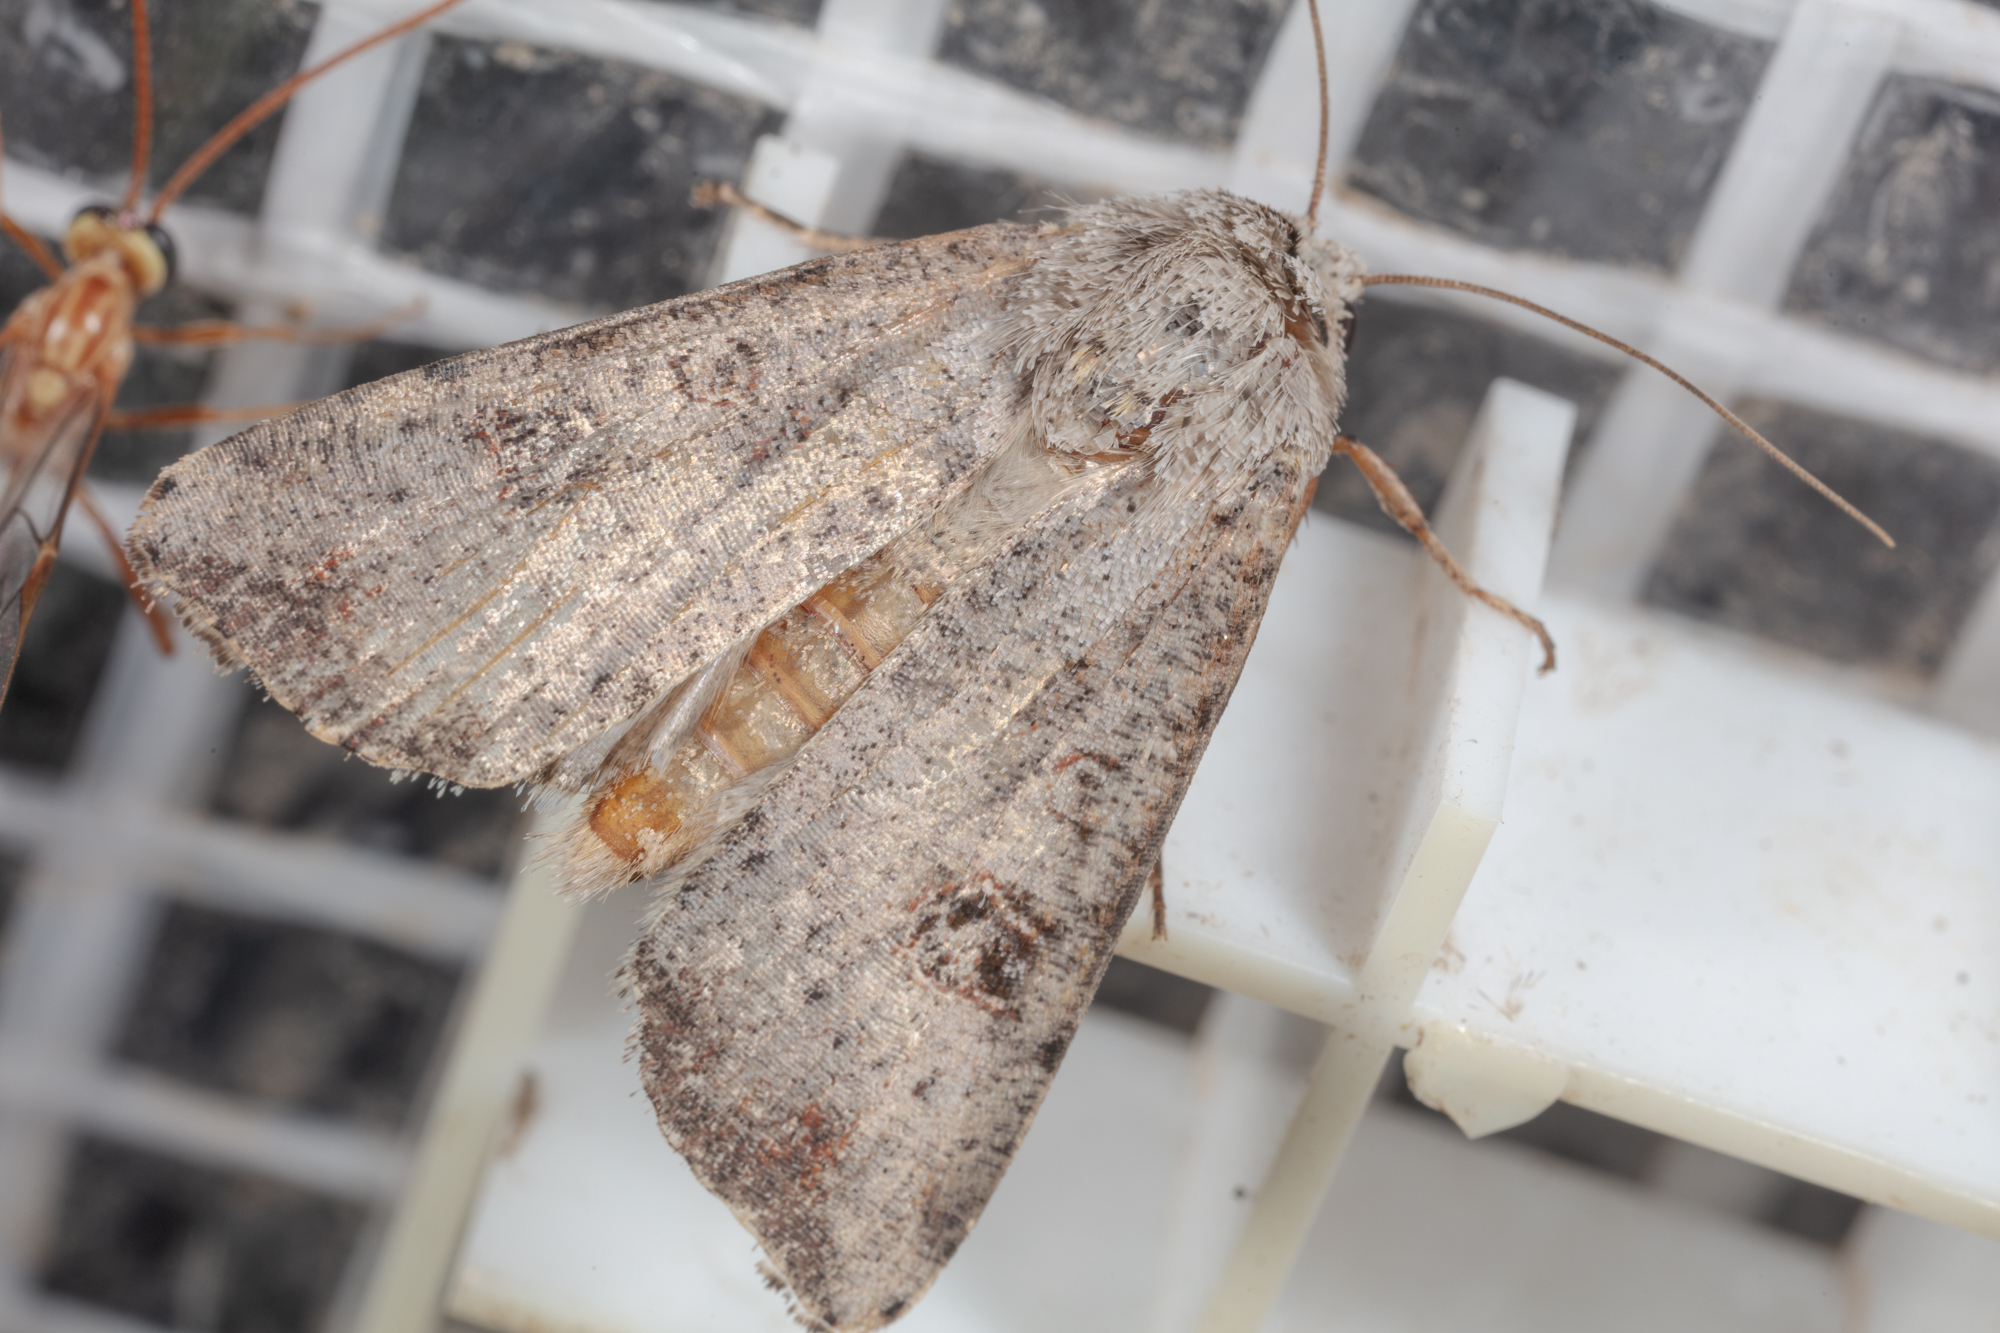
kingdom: Animalia
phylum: Arthropoda
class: Insecta
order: Lepidoptera
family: Noctuidae
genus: Anicla
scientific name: Anicla infecta
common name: Green cutworm
